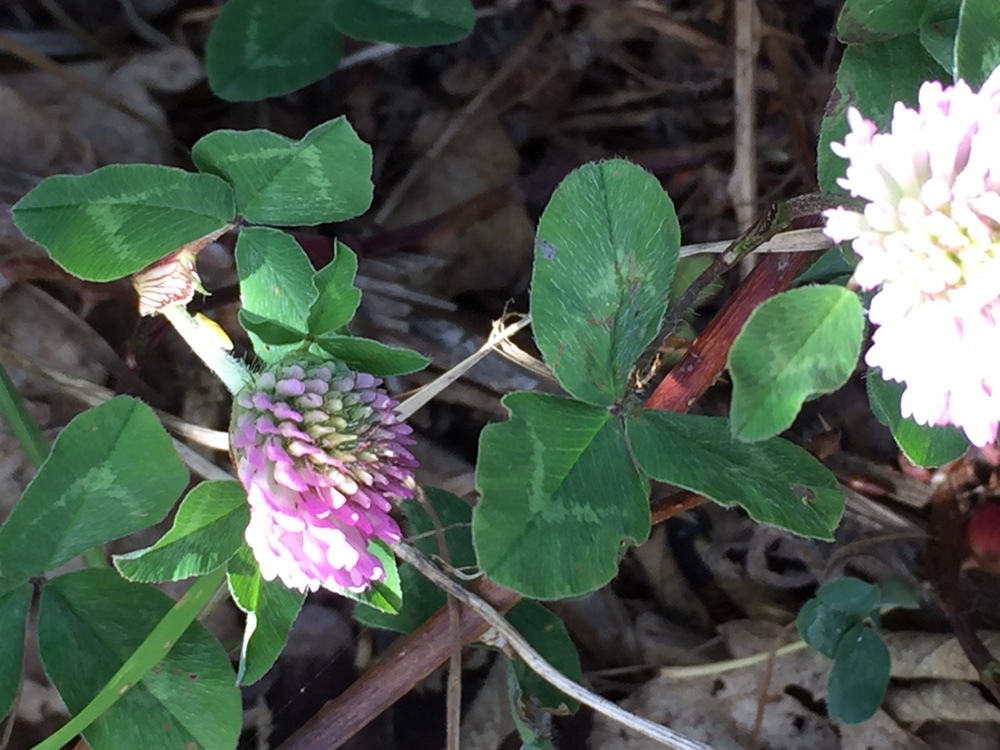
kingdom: Plantae
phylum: Tracheophyta
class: Magnoliopsida
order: Fabales
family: Fabaceae
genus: Trifolium
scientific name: Trifolium pratense
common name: Red clover
